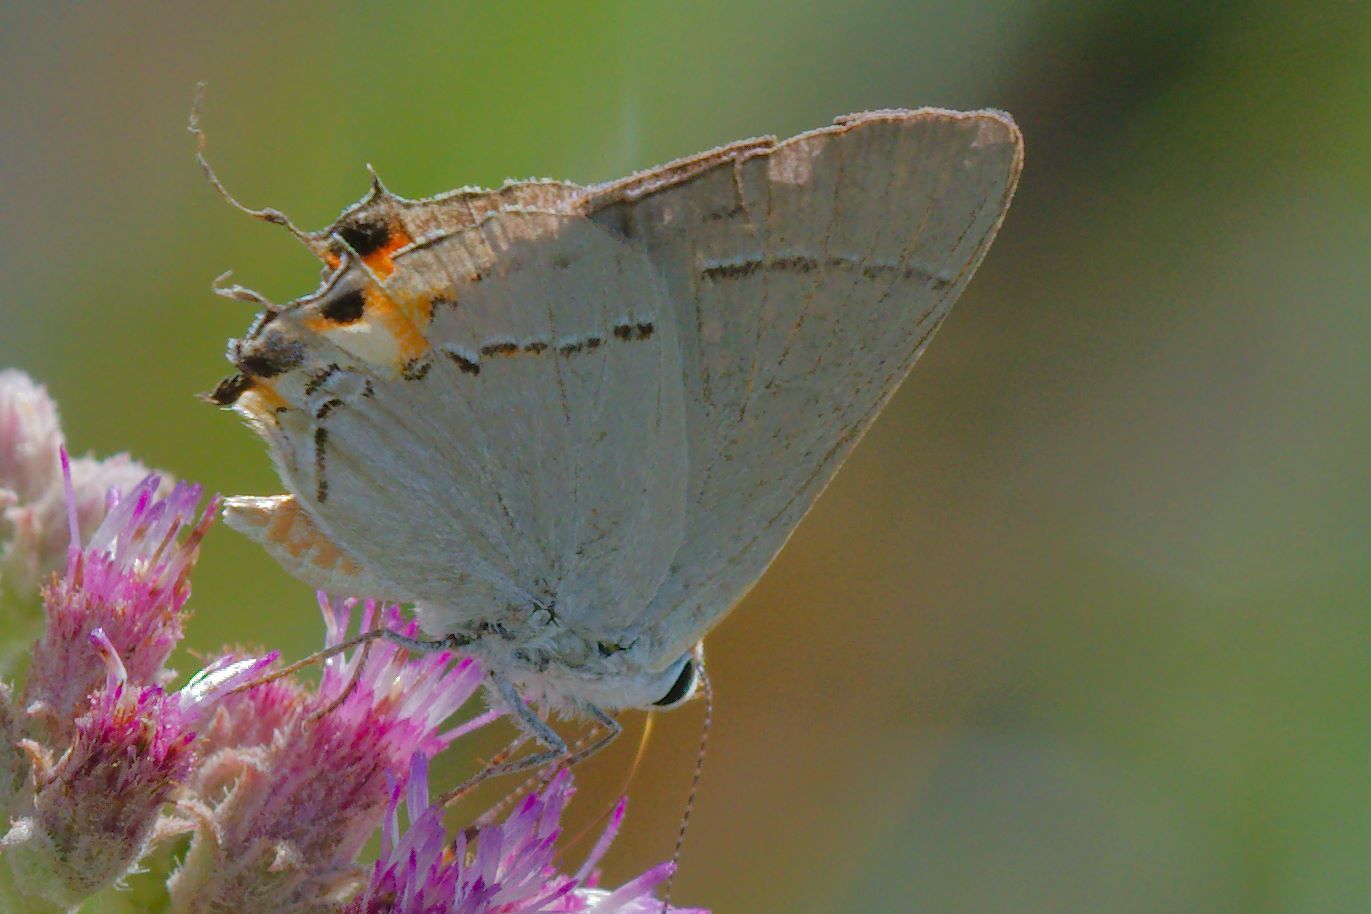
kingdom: Animalia
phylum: Arthropoda
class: Insecta
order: Lepidoptera
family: Lycaenidae
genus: Strymon
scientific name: Strymon melinus
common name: Gray hairstreak
